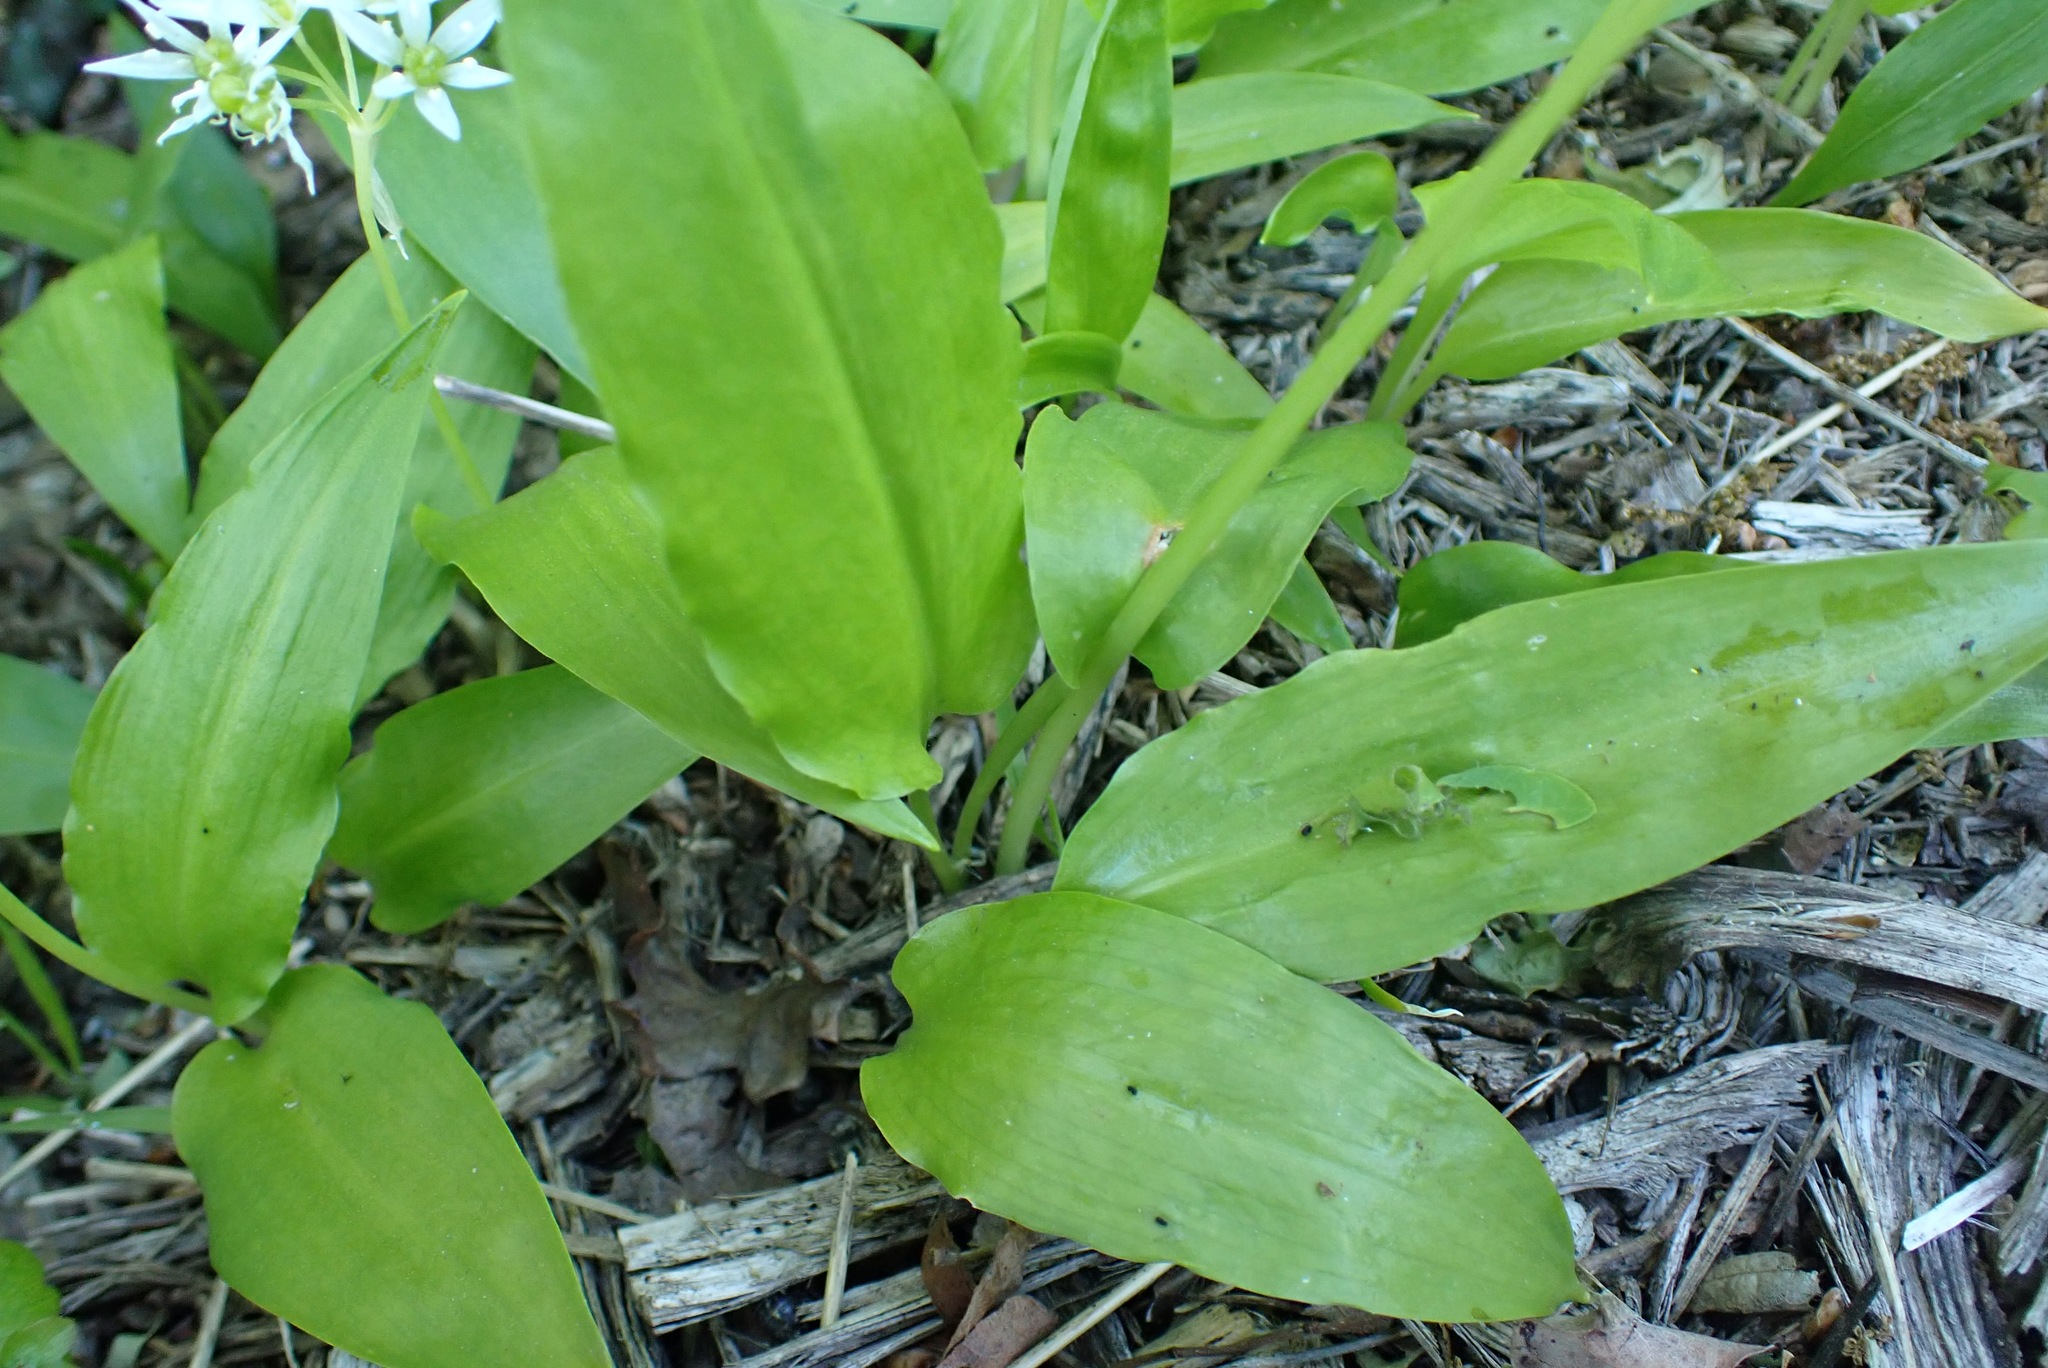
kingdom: Plantae
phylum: Tracheophyta
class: Liliopsida
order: Asparagales
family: Amaryllidaceae
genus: Allium
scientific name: Allium ursinum
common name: Ramsons
